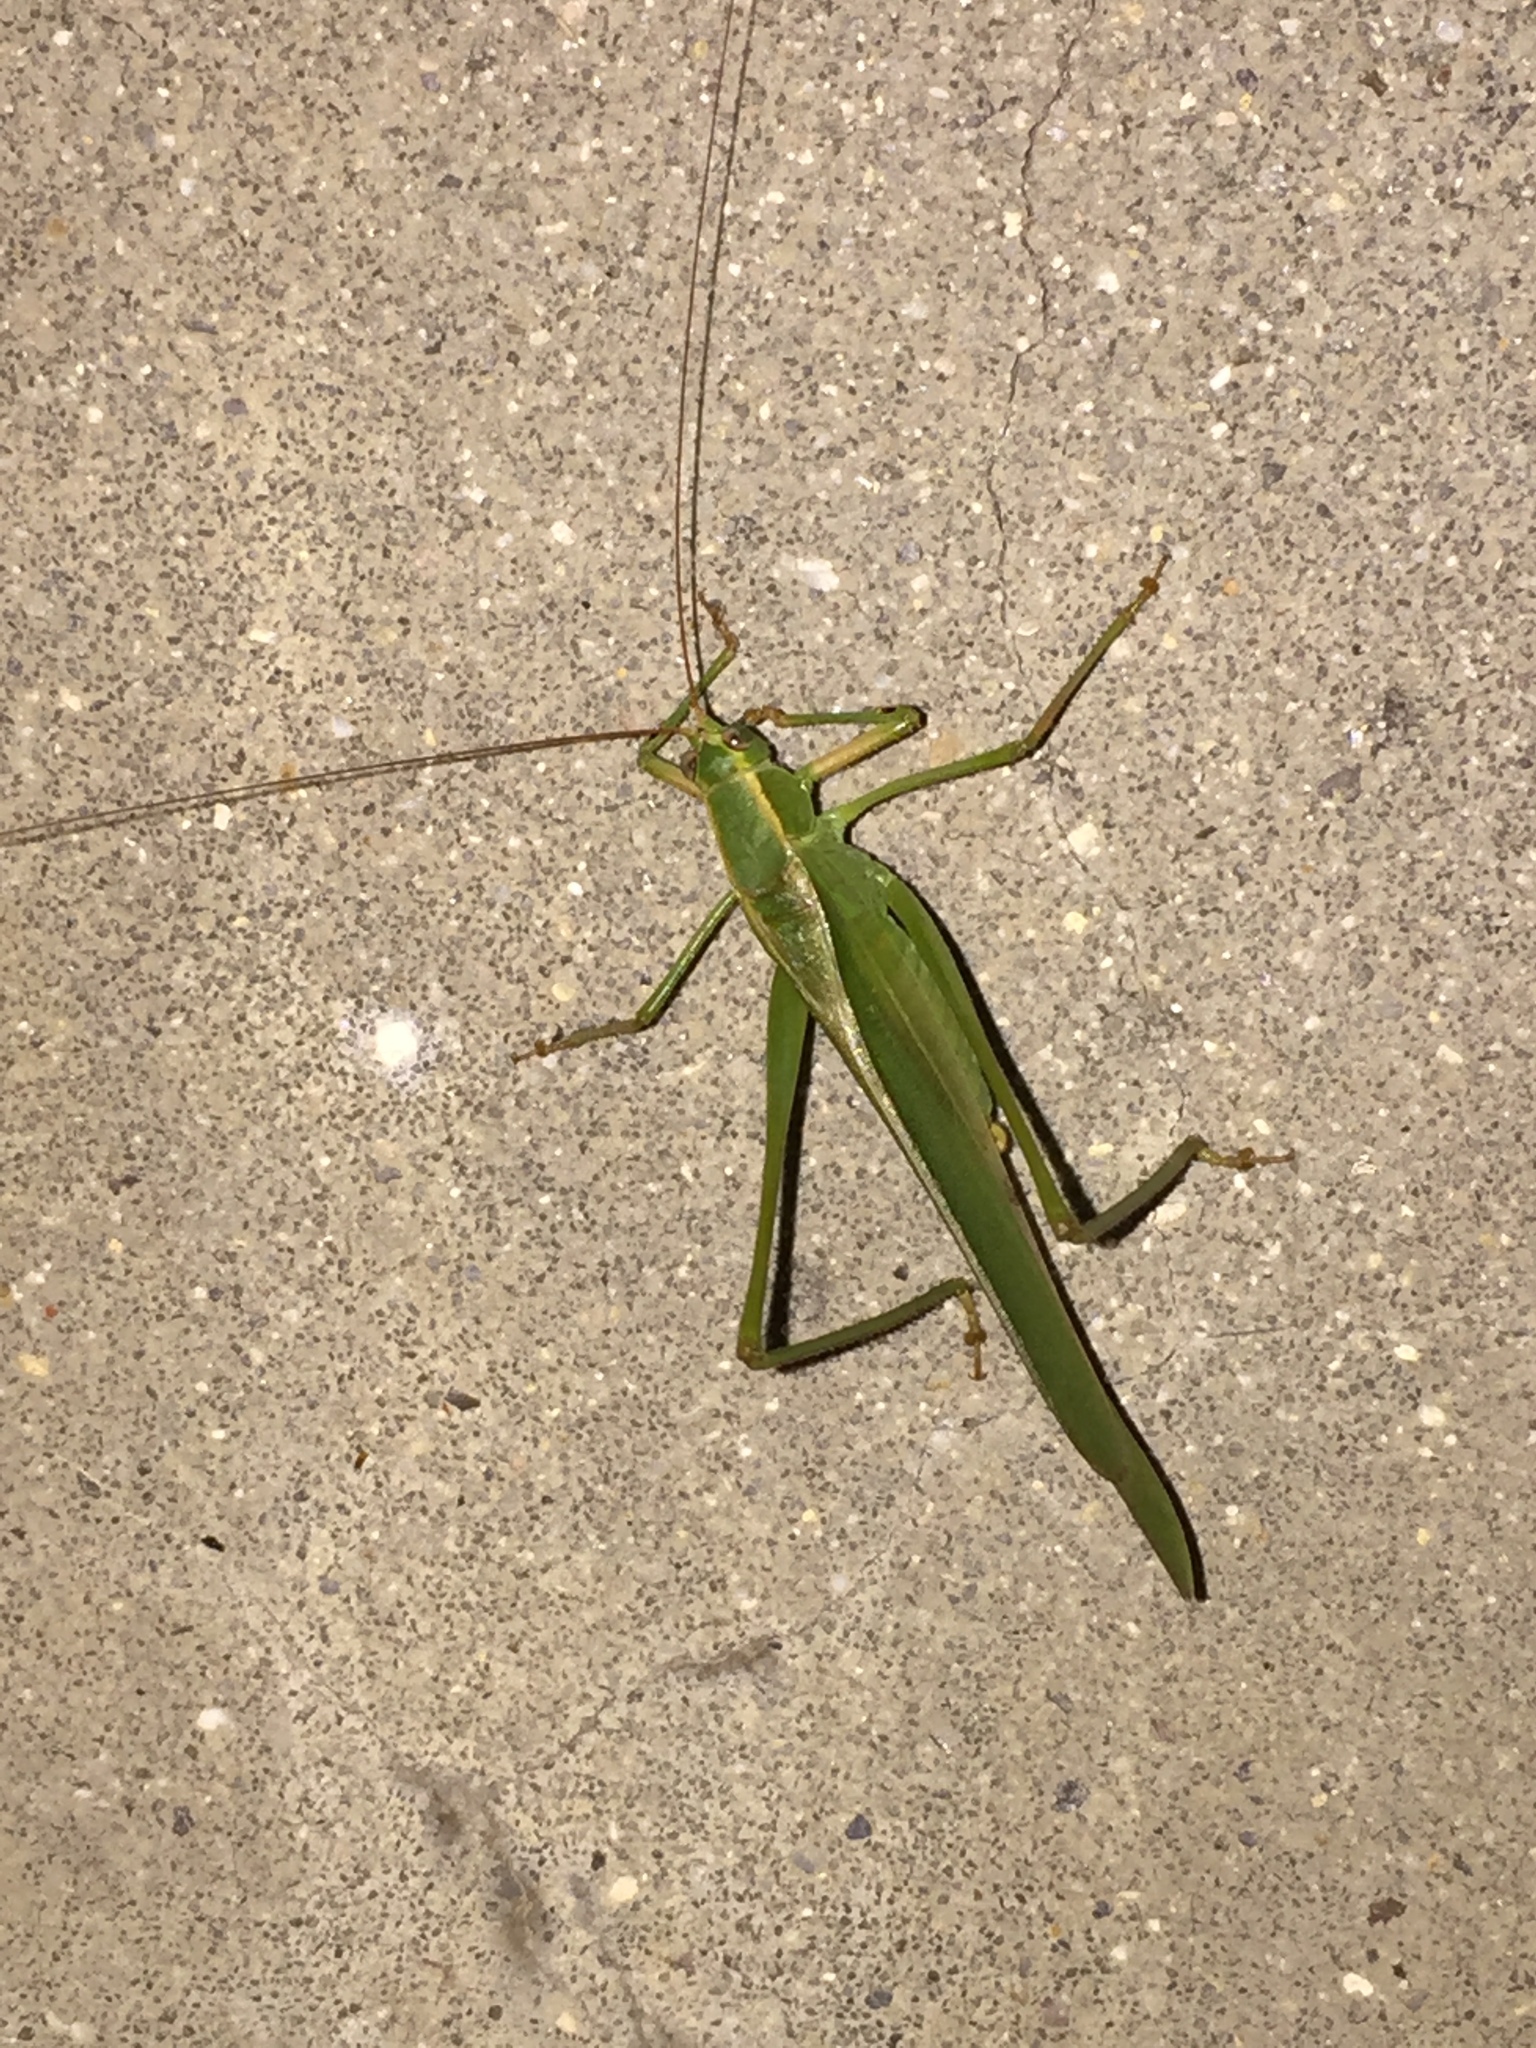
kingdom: Animalia
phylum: Arthropoda
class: Insecta
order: Orthoptera
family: Tettigoniidae
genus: Scudderia
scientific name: Scudderia
